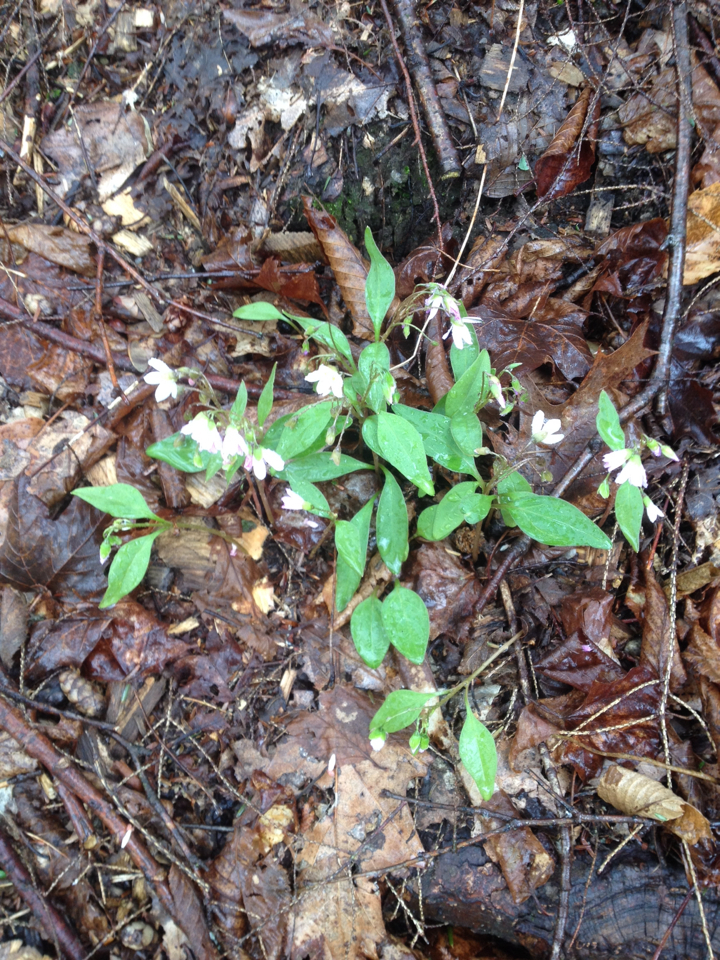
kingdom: Plantae
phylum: Tracheophyta
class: Magnoliopsida
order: Caryophyllales
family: Montiaceae
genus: Claytonia
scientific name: Claytonia caroliniana
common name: Carolina spring beauty
